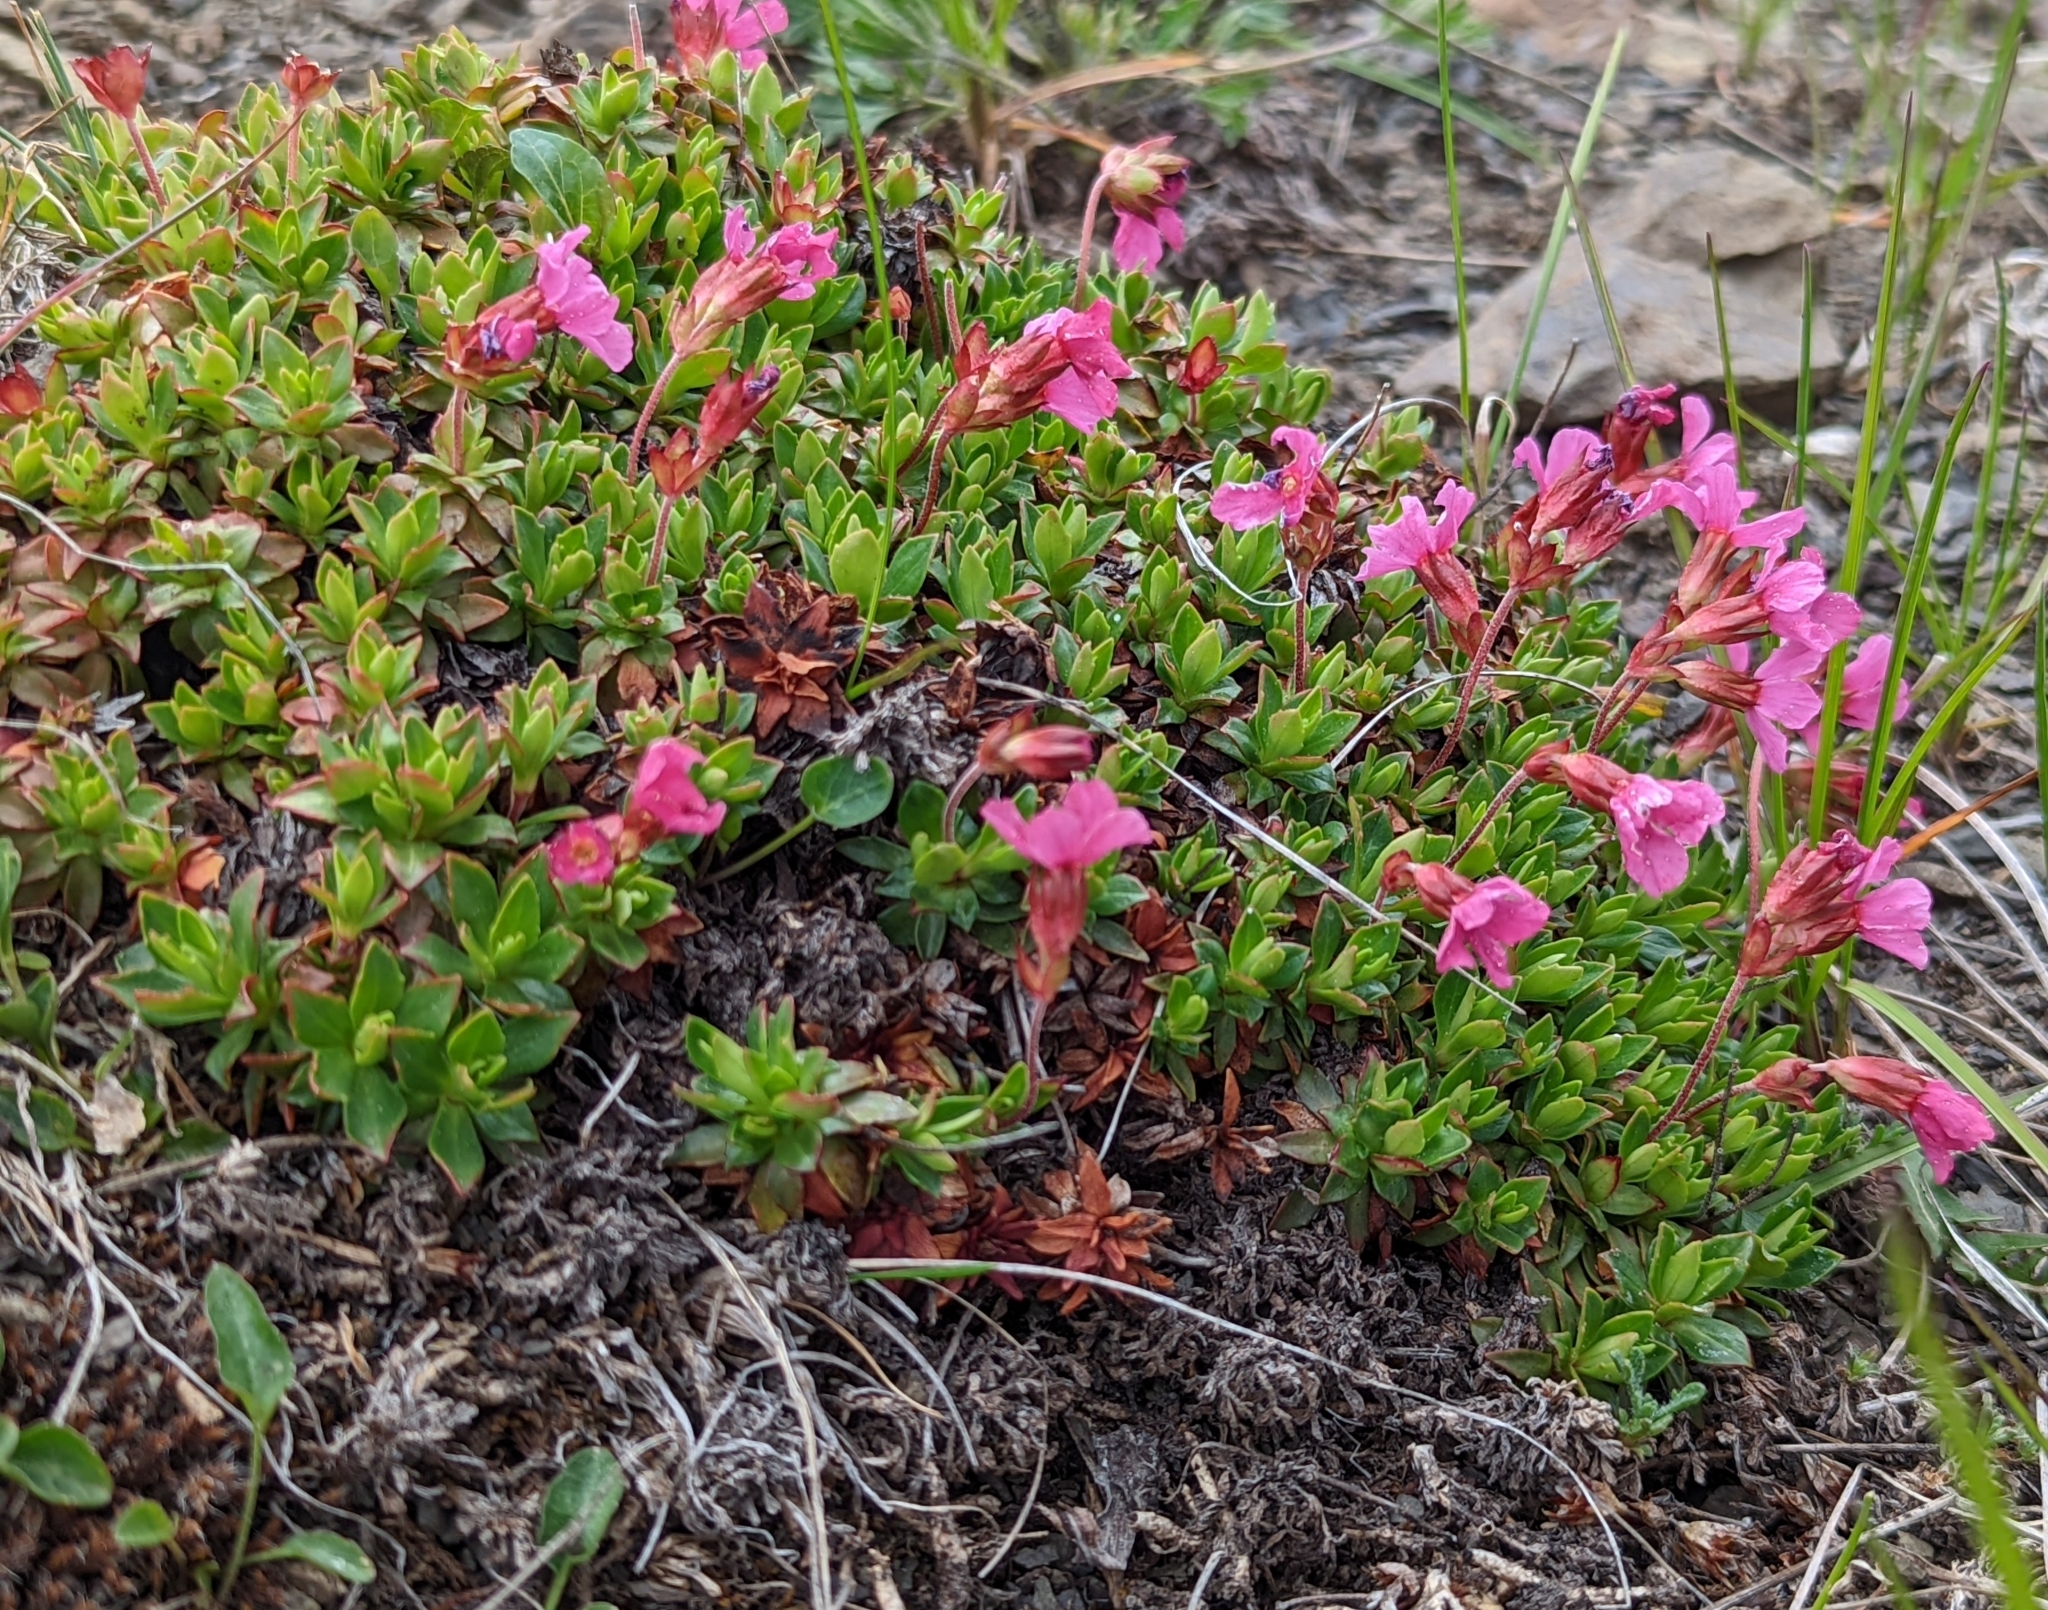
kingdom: Plantae
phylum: Tracheophyta
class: Magnoliopsida
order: Ericales
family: Primulaceae
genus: Androsace
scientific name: Androsace laevigata
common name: Cliff dwarf-primrose
